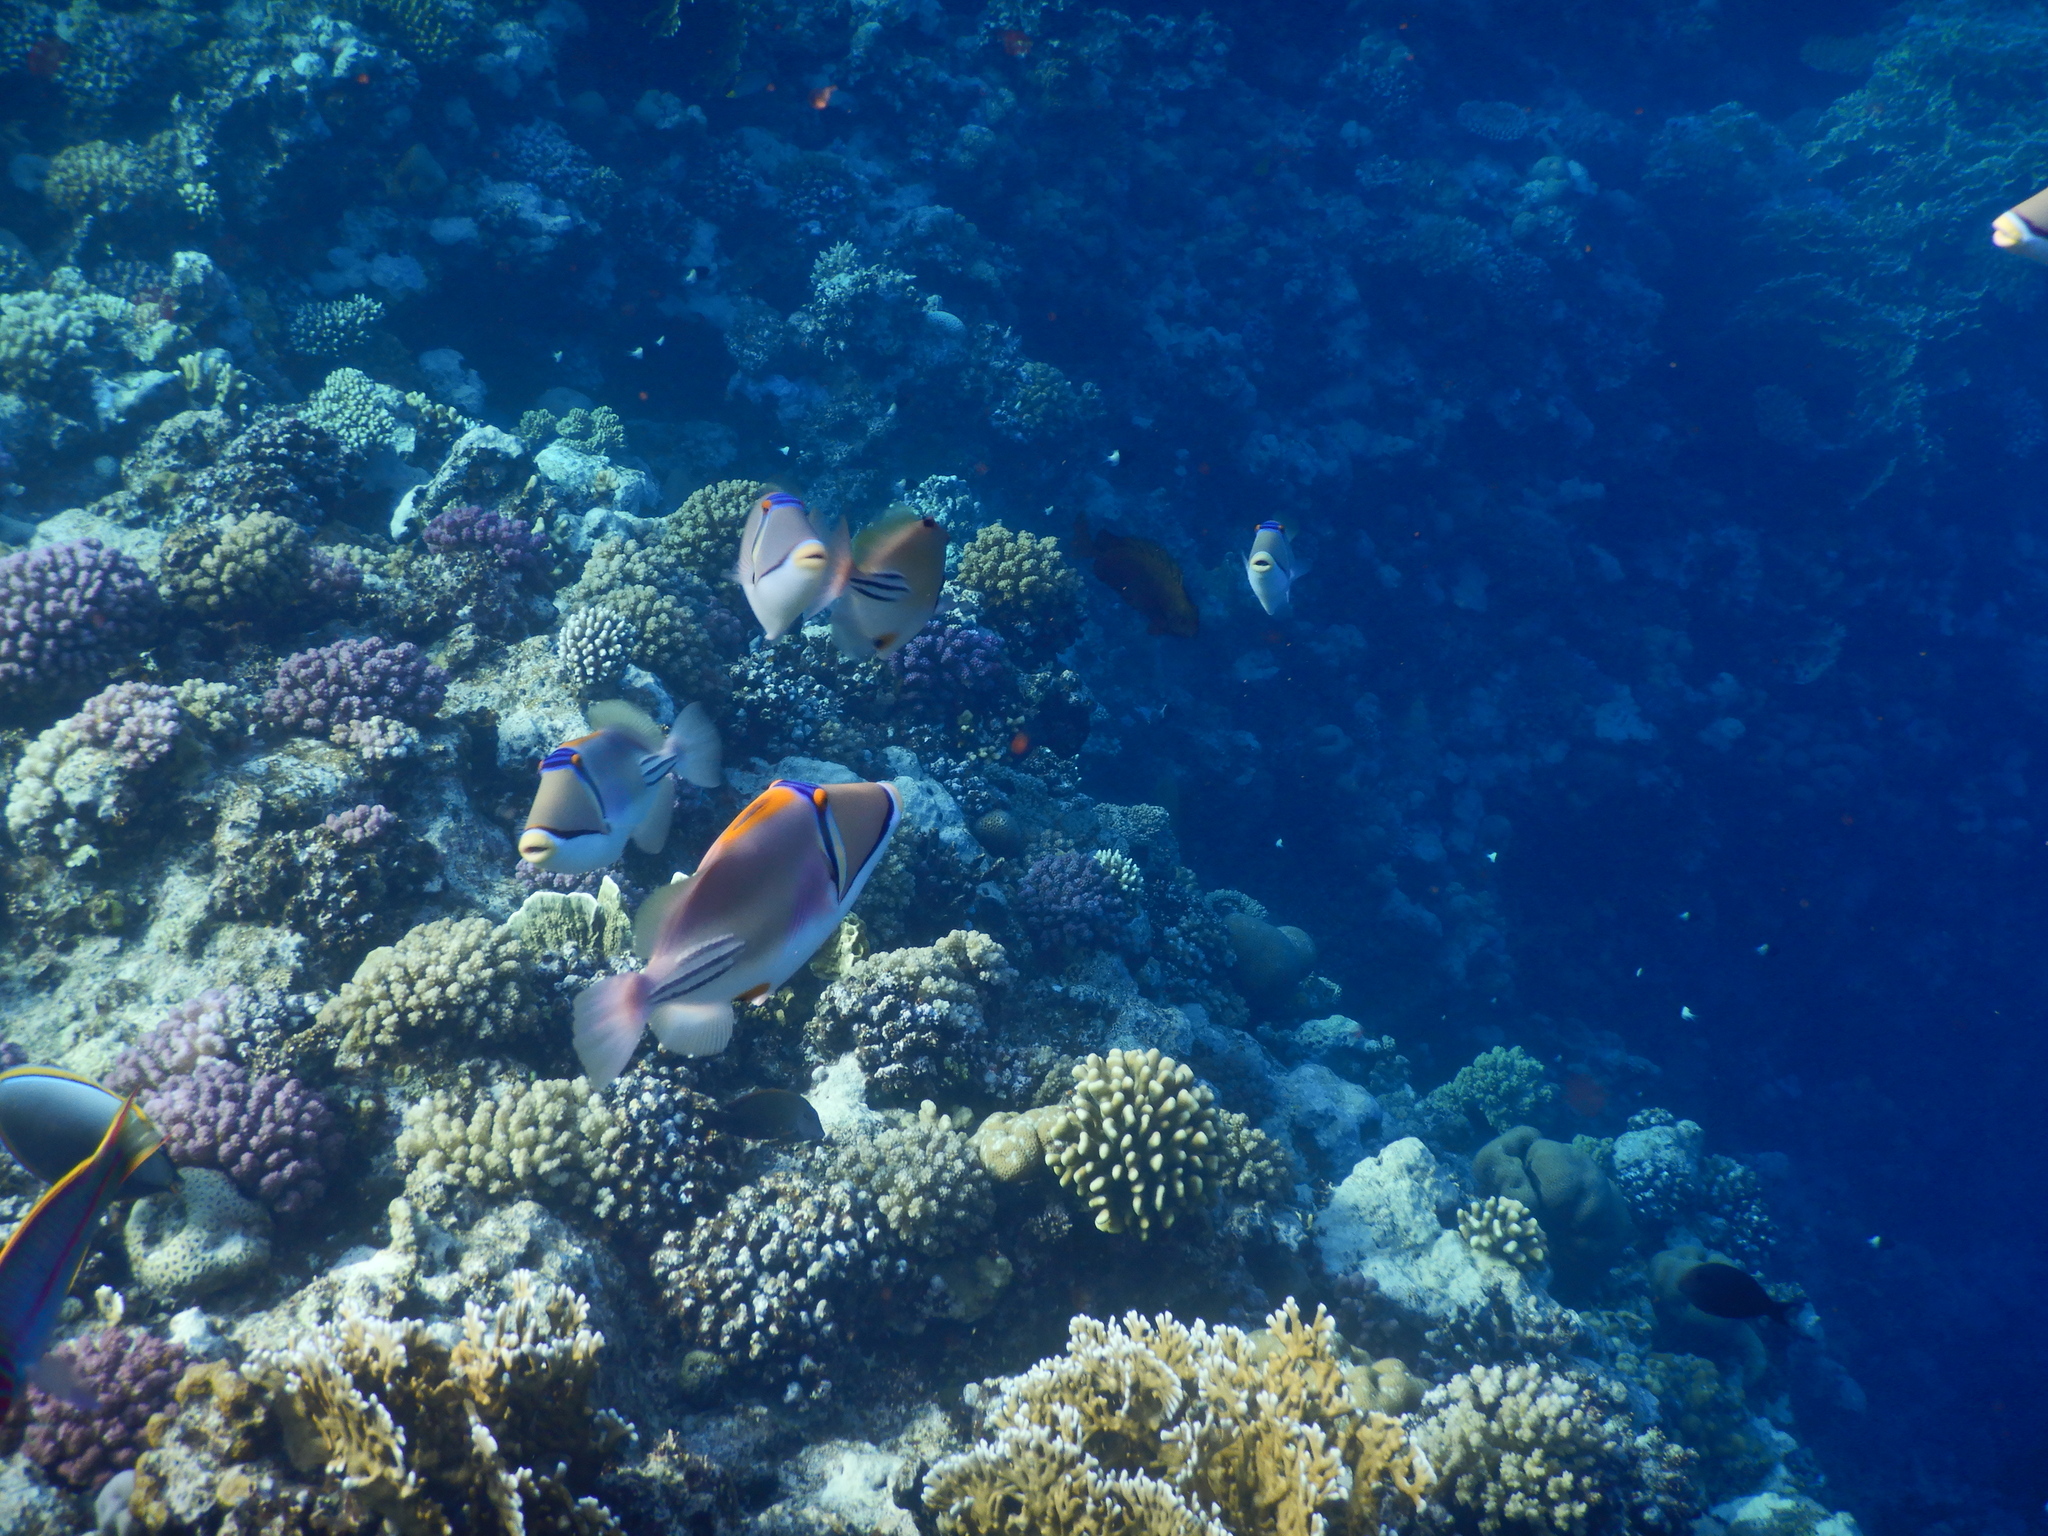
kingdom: Animalia
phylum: Chordata
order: Tetraodontiformes
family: Balistidae
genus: Rhinecanthus
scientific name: Rhinecanthus assasi
